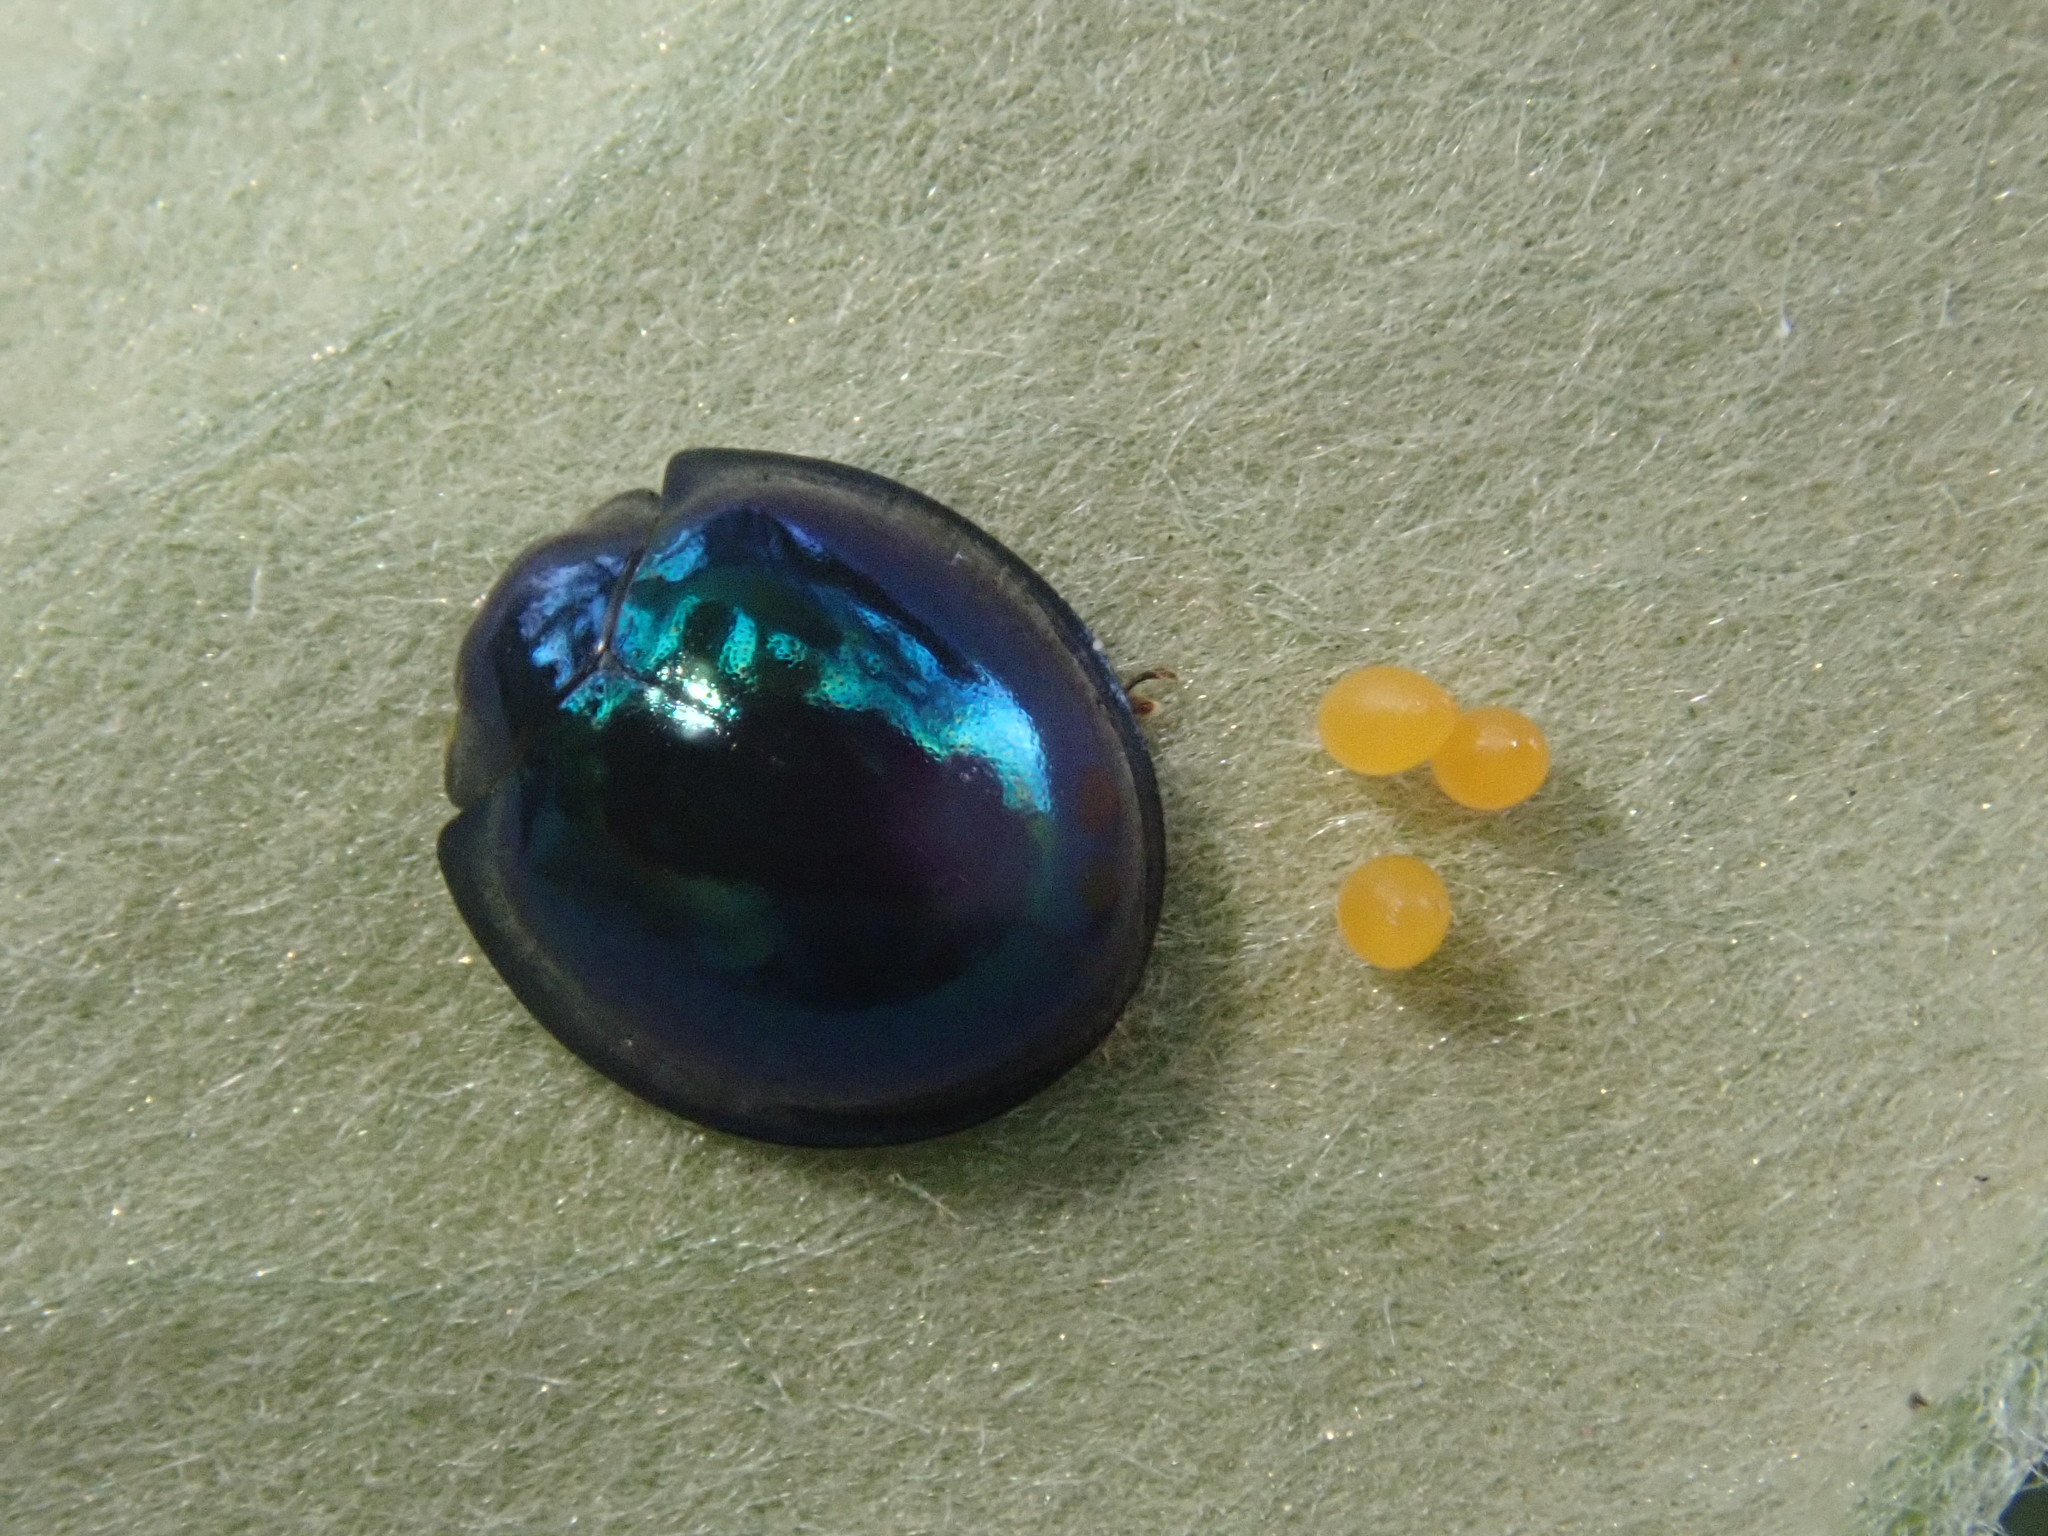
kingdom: Animalia
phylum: Arthropoda
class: Insecta
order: Coleoptera
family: Coccinellidae
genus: Halmus
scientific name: Halmus chalybeus
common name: Steel blue ladybird beetle
